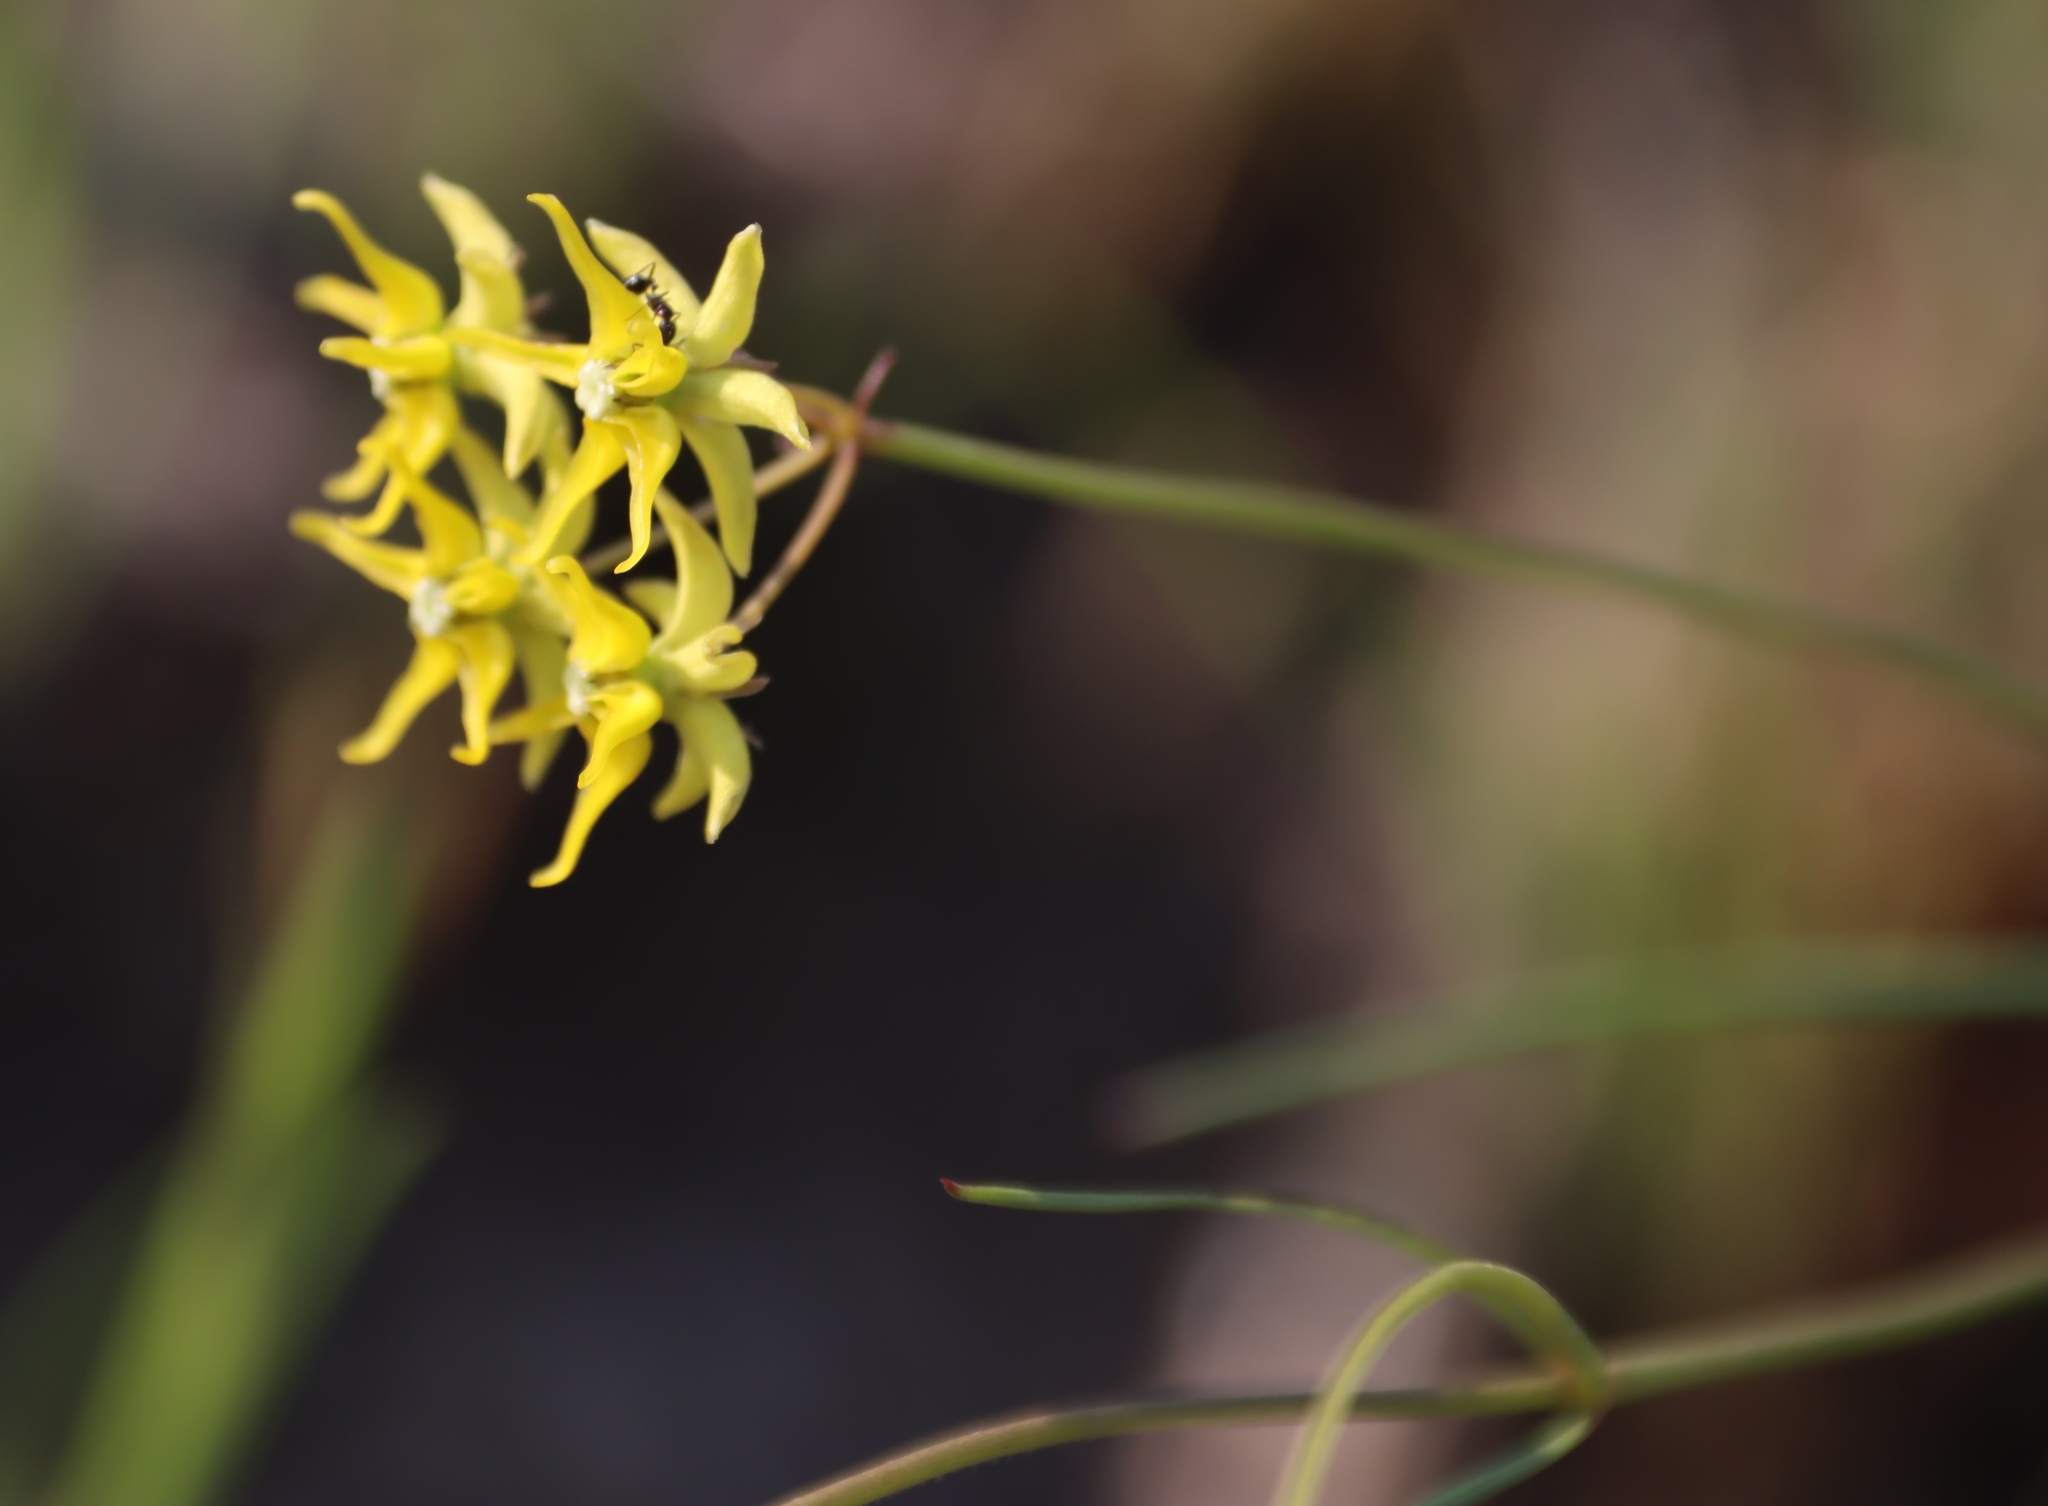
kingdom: Plantae
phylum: Tracheophyta
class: Magnoliopsida
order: Gentianales
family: Apocynaceae
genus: Asclepias
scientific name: Asclepias aurea
